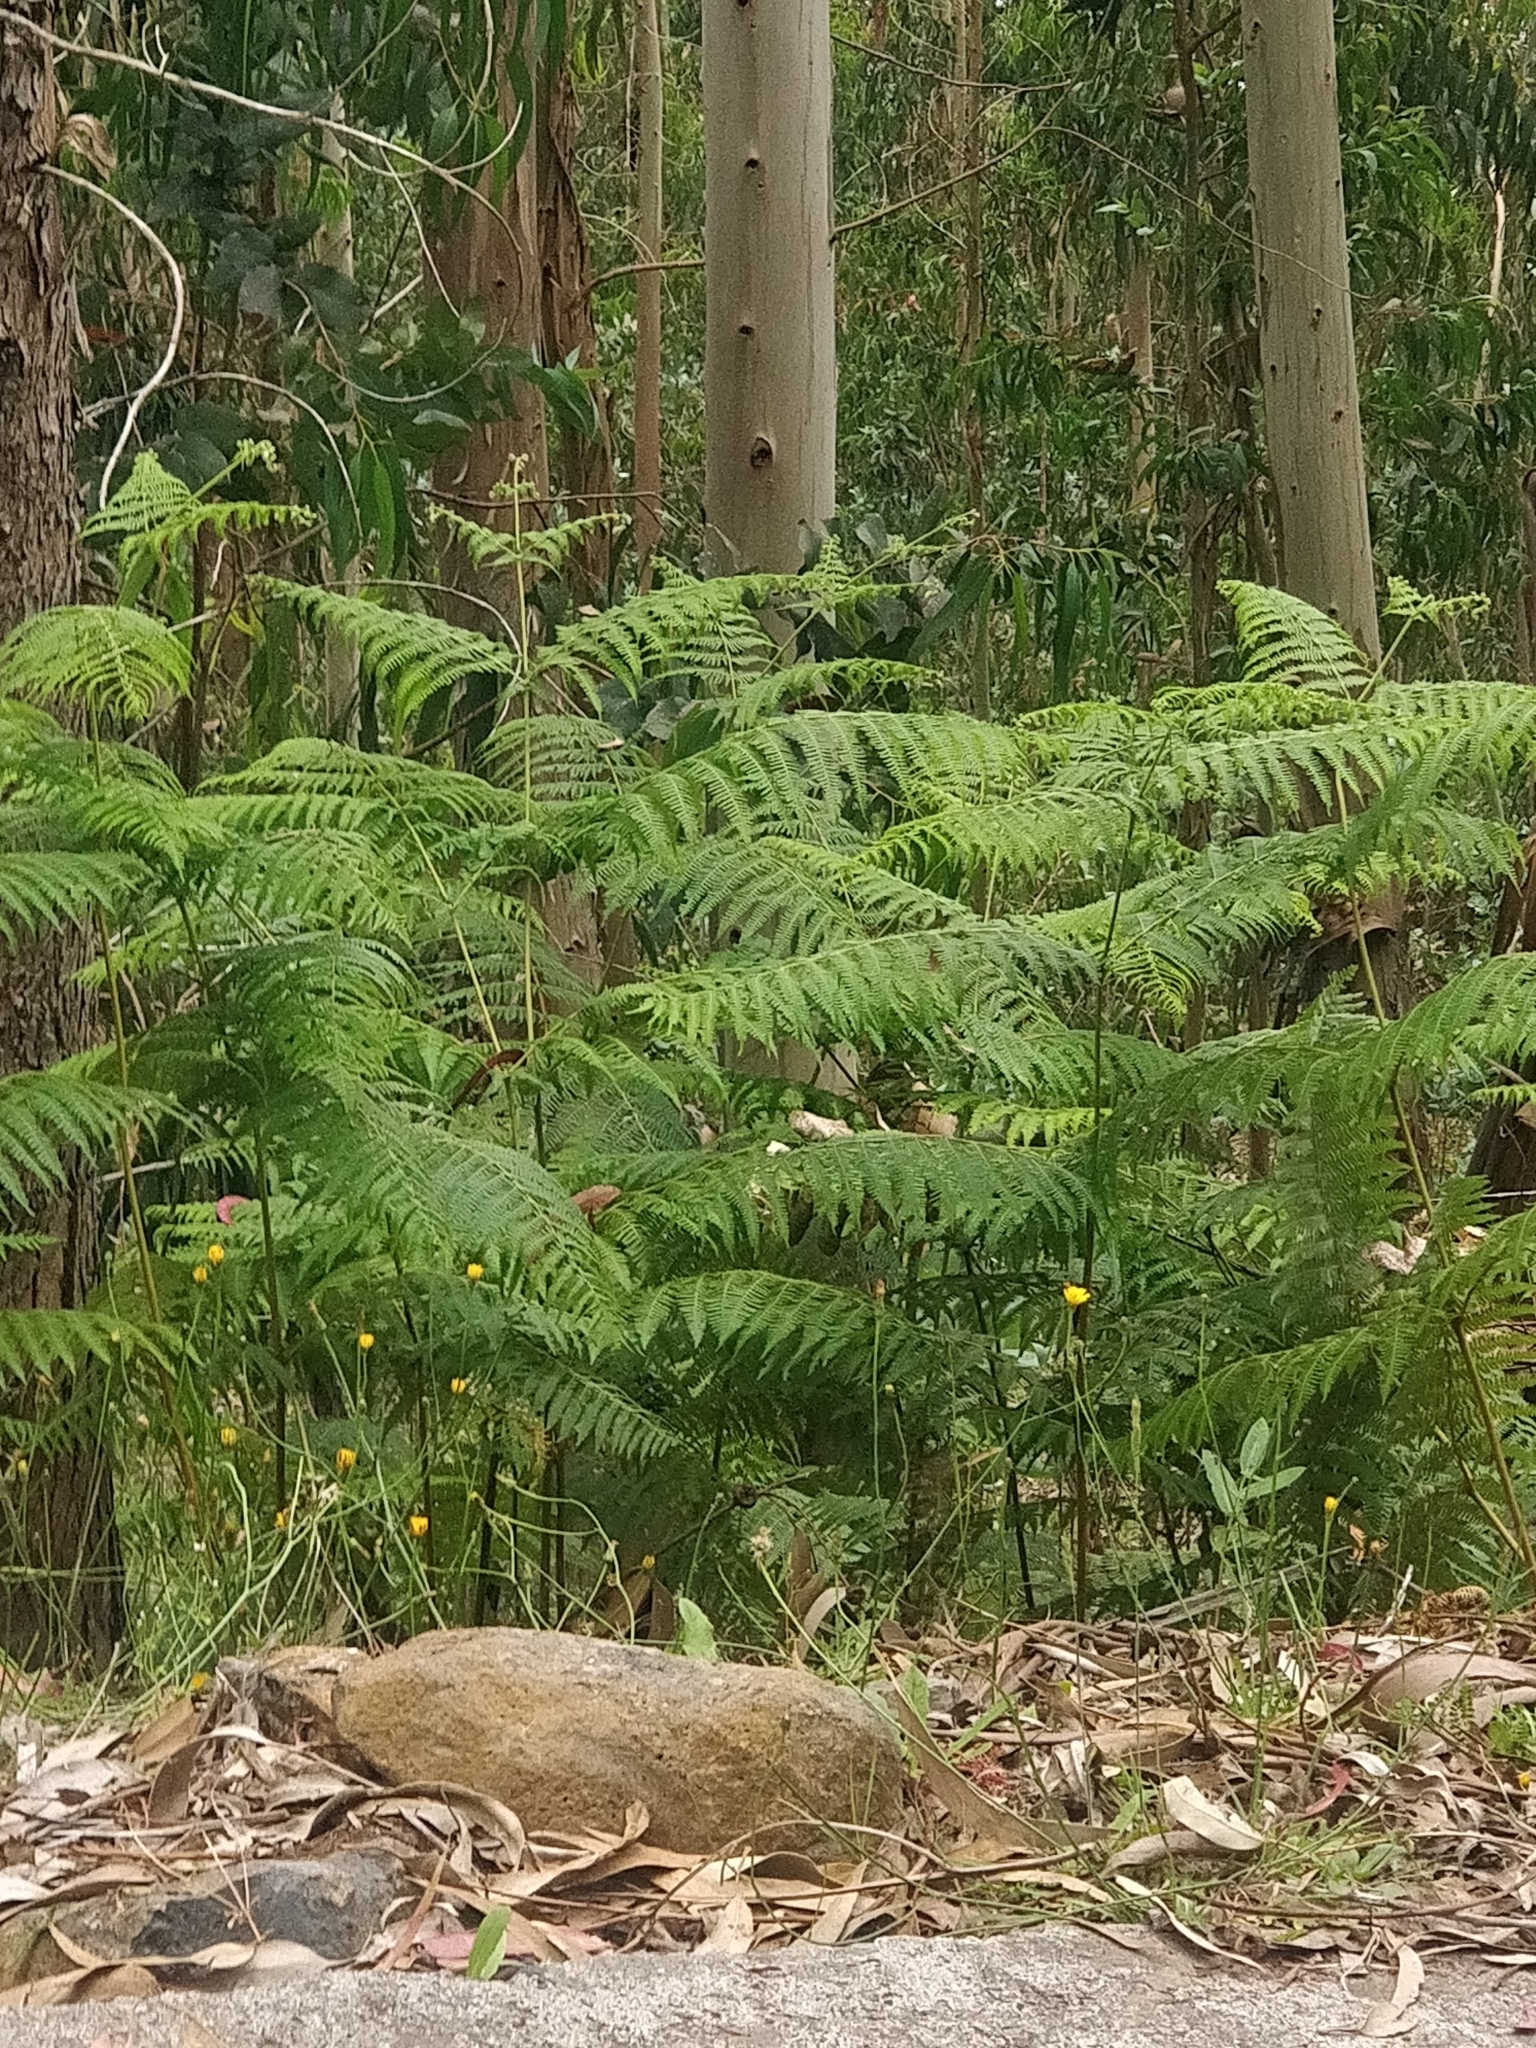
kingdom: Plantae
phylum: Tracheophyta
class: Polypodiopsida
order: Polypodiales
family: Dennstaedtiaceae
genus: Pteridium
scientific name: Pteridium aquilinum
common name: Bracken
